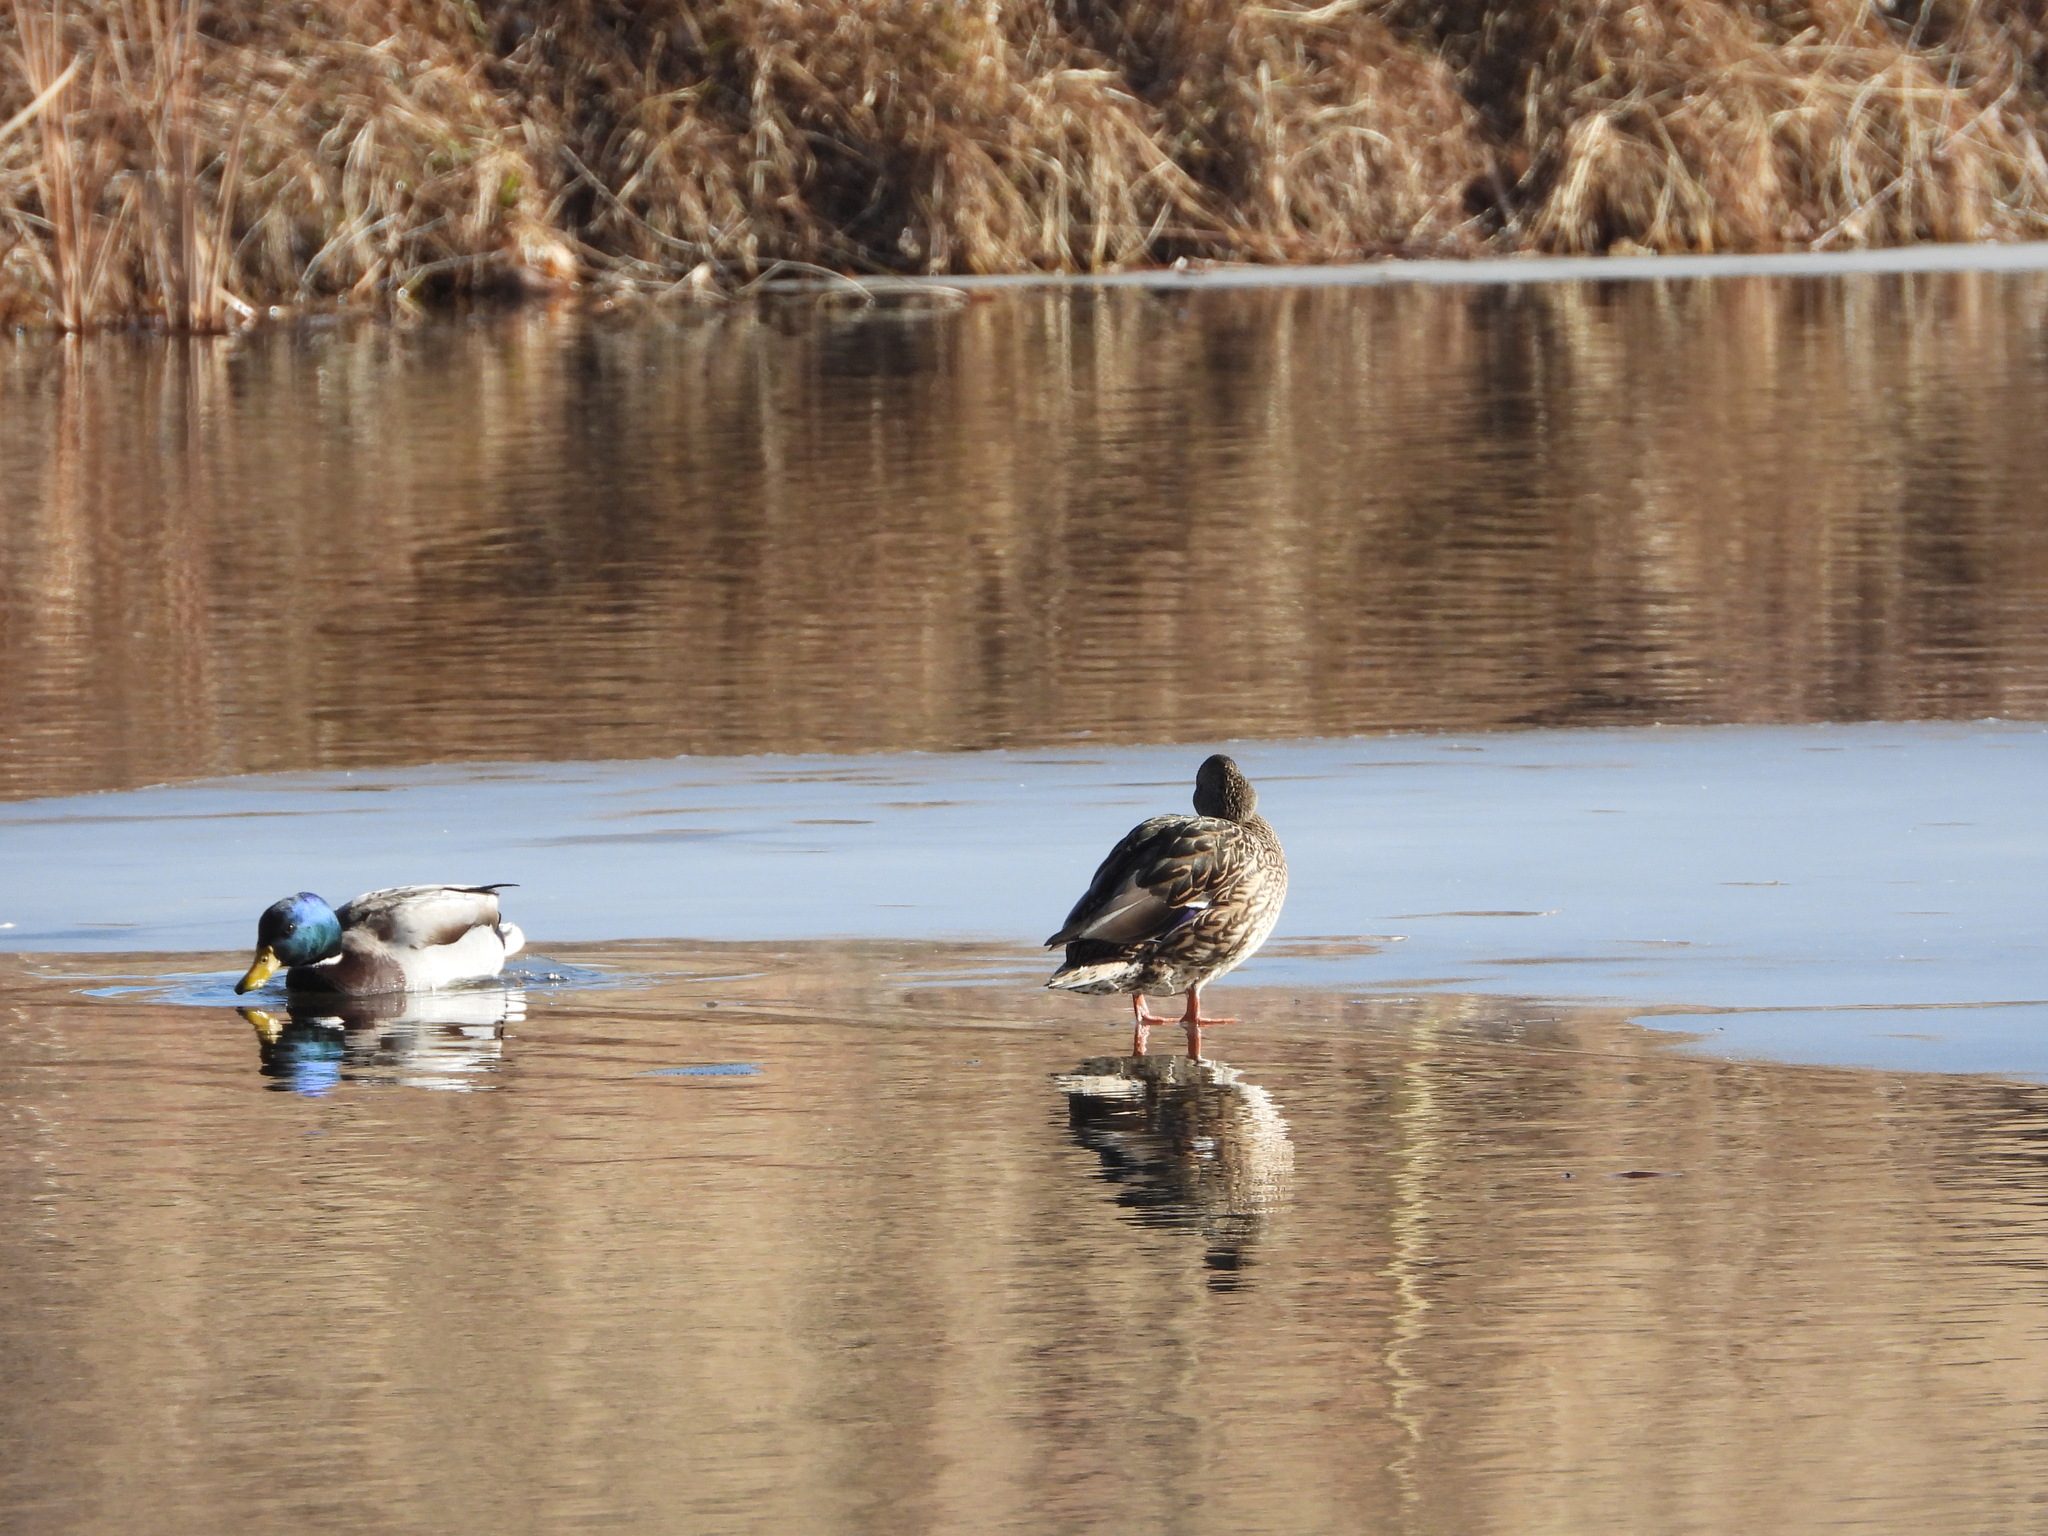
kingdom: Animalia
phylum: Chordata
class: Aves
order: Anseriformes
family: Anatidae
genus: Anas
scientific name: Anas platyrhynchos
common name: Mallard
